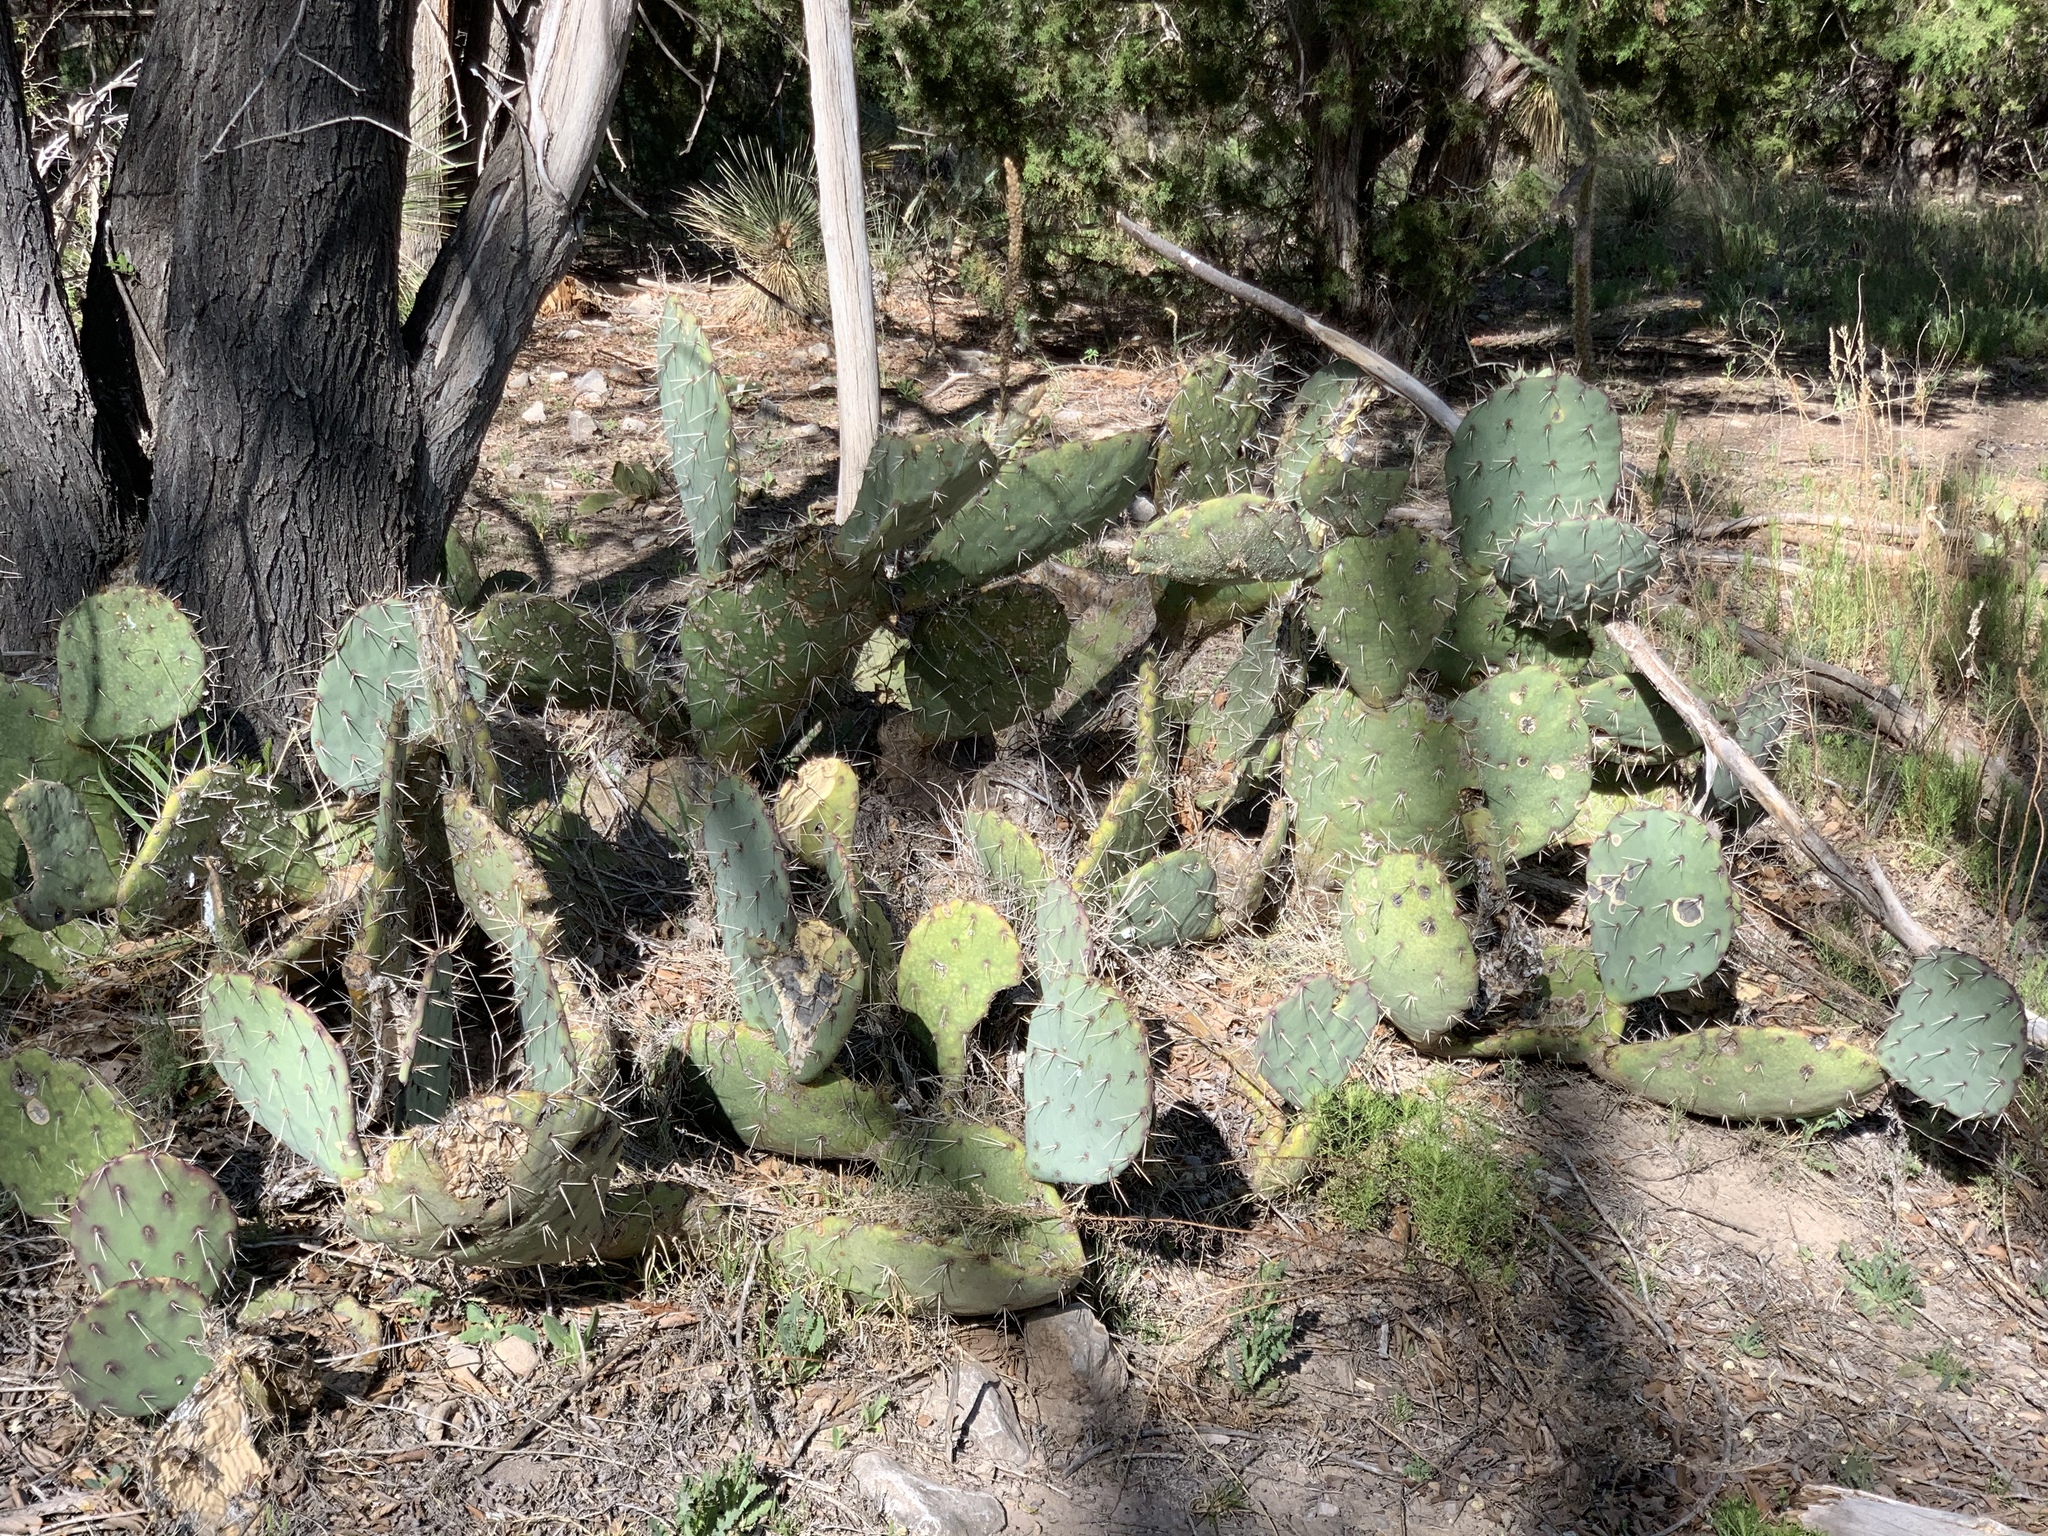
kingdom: Plantae
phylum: Tracheophyta
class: Magnoliopsida
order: Caryophyllales
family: Cactaceae
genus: Opuntia
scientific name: Opuntia engelmannii
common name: Cactus-apple
